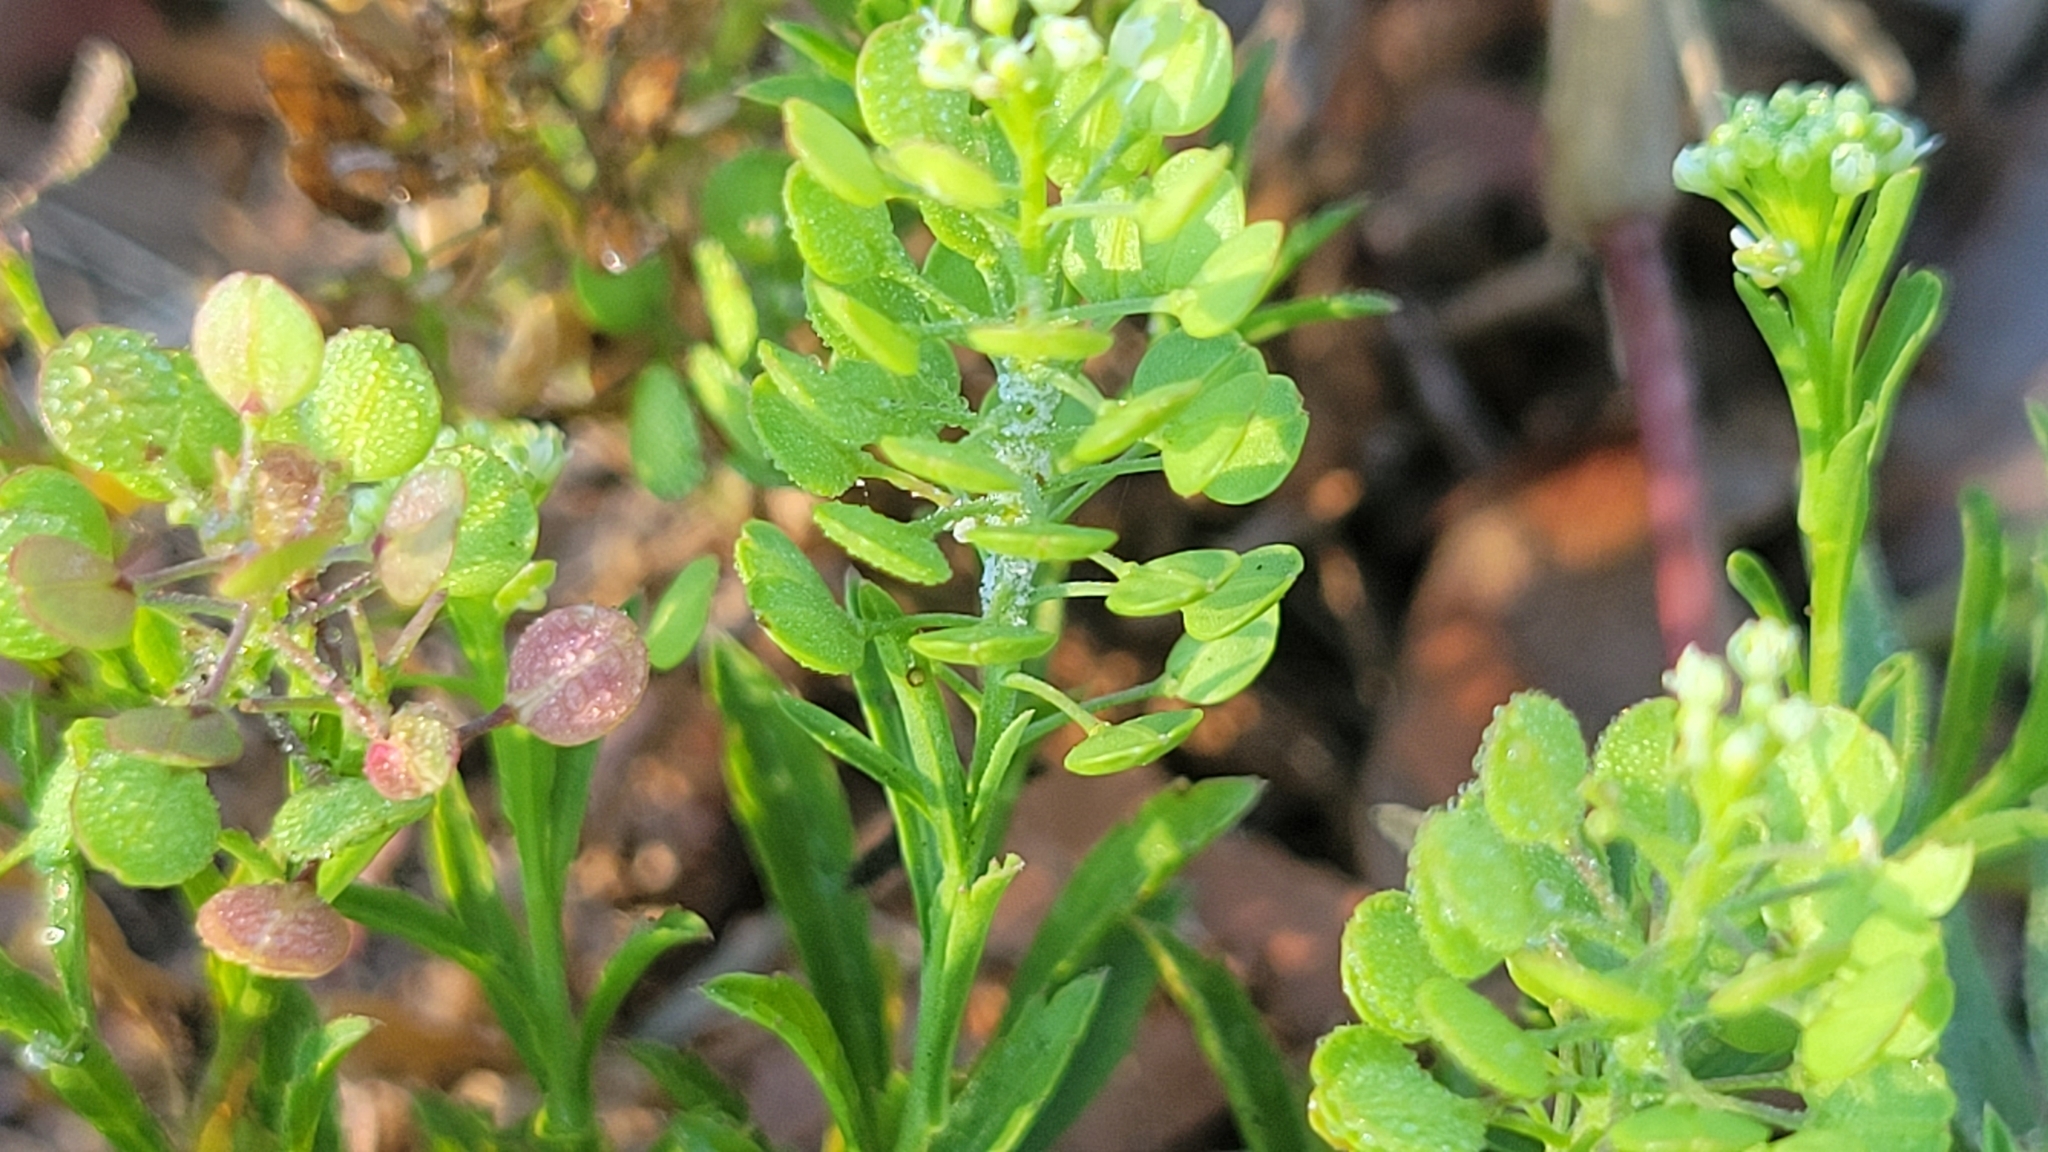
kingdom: Plantae
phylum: Tracheophyta
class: Magnoliopsida
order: Brassicales
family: Brassicaceae
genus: Lepidium
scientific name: Lepidium virginicum
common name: Least pepperwort
